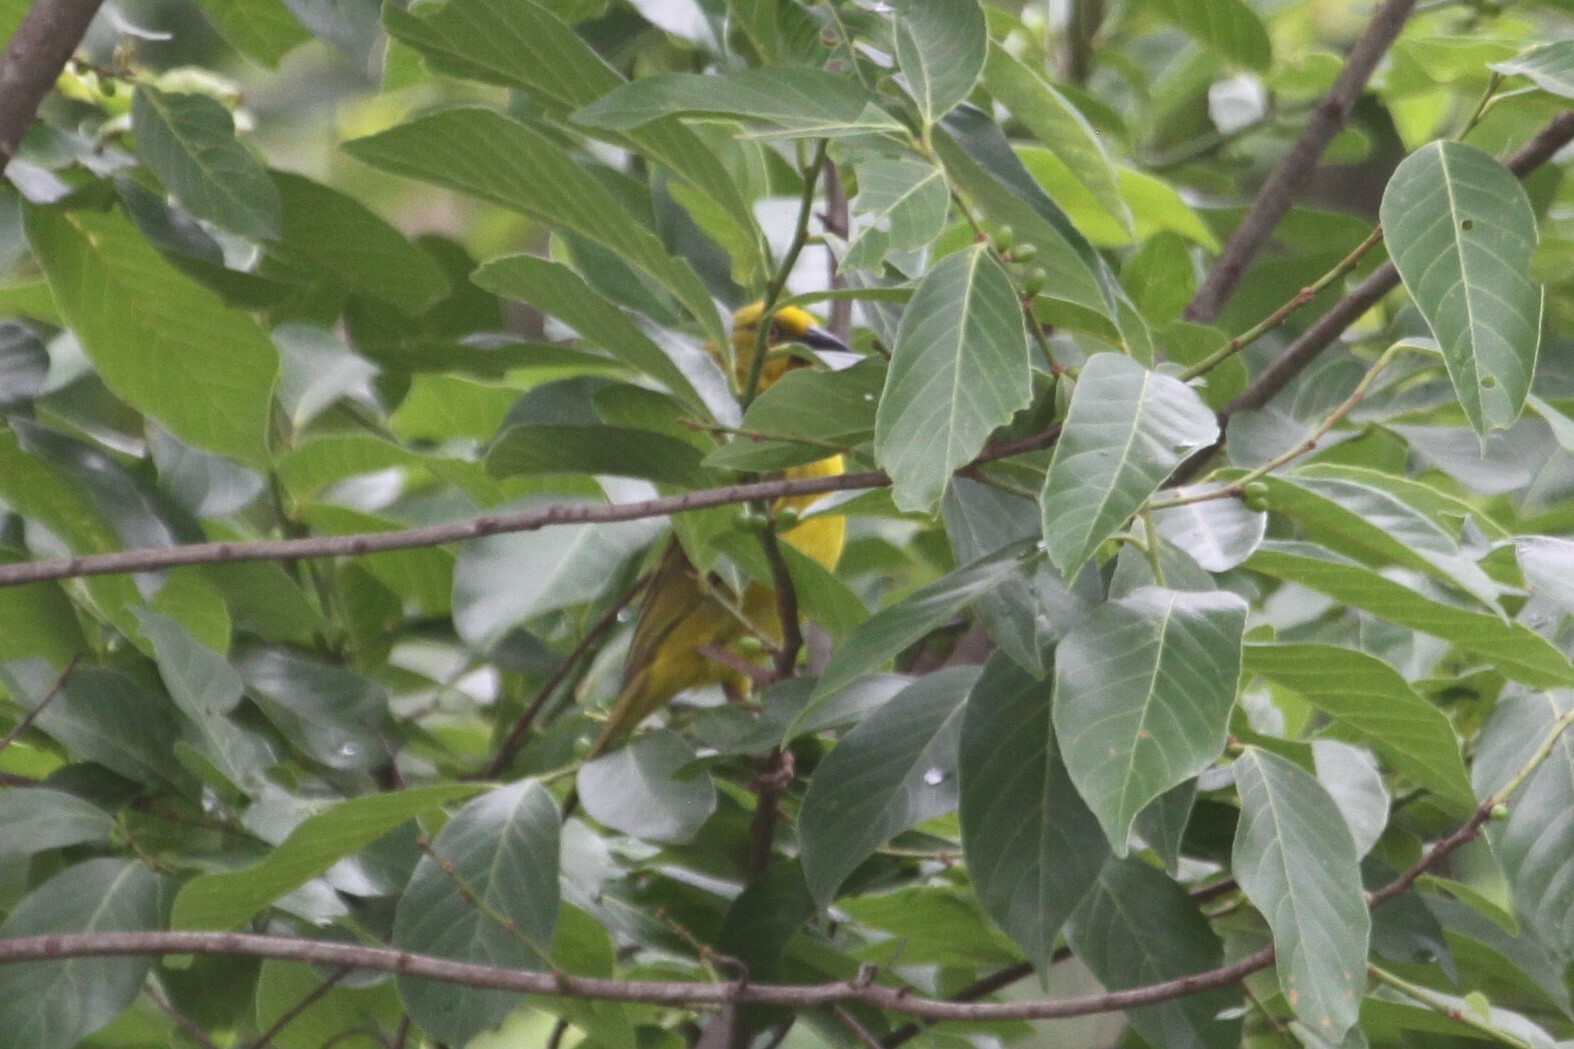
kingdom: Animalia
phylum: Chordata
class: Aves
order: Passeriformes
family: Ploceidae
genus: Ploceus
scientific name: Ploceus xanthops
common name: Holub's golden weaver
